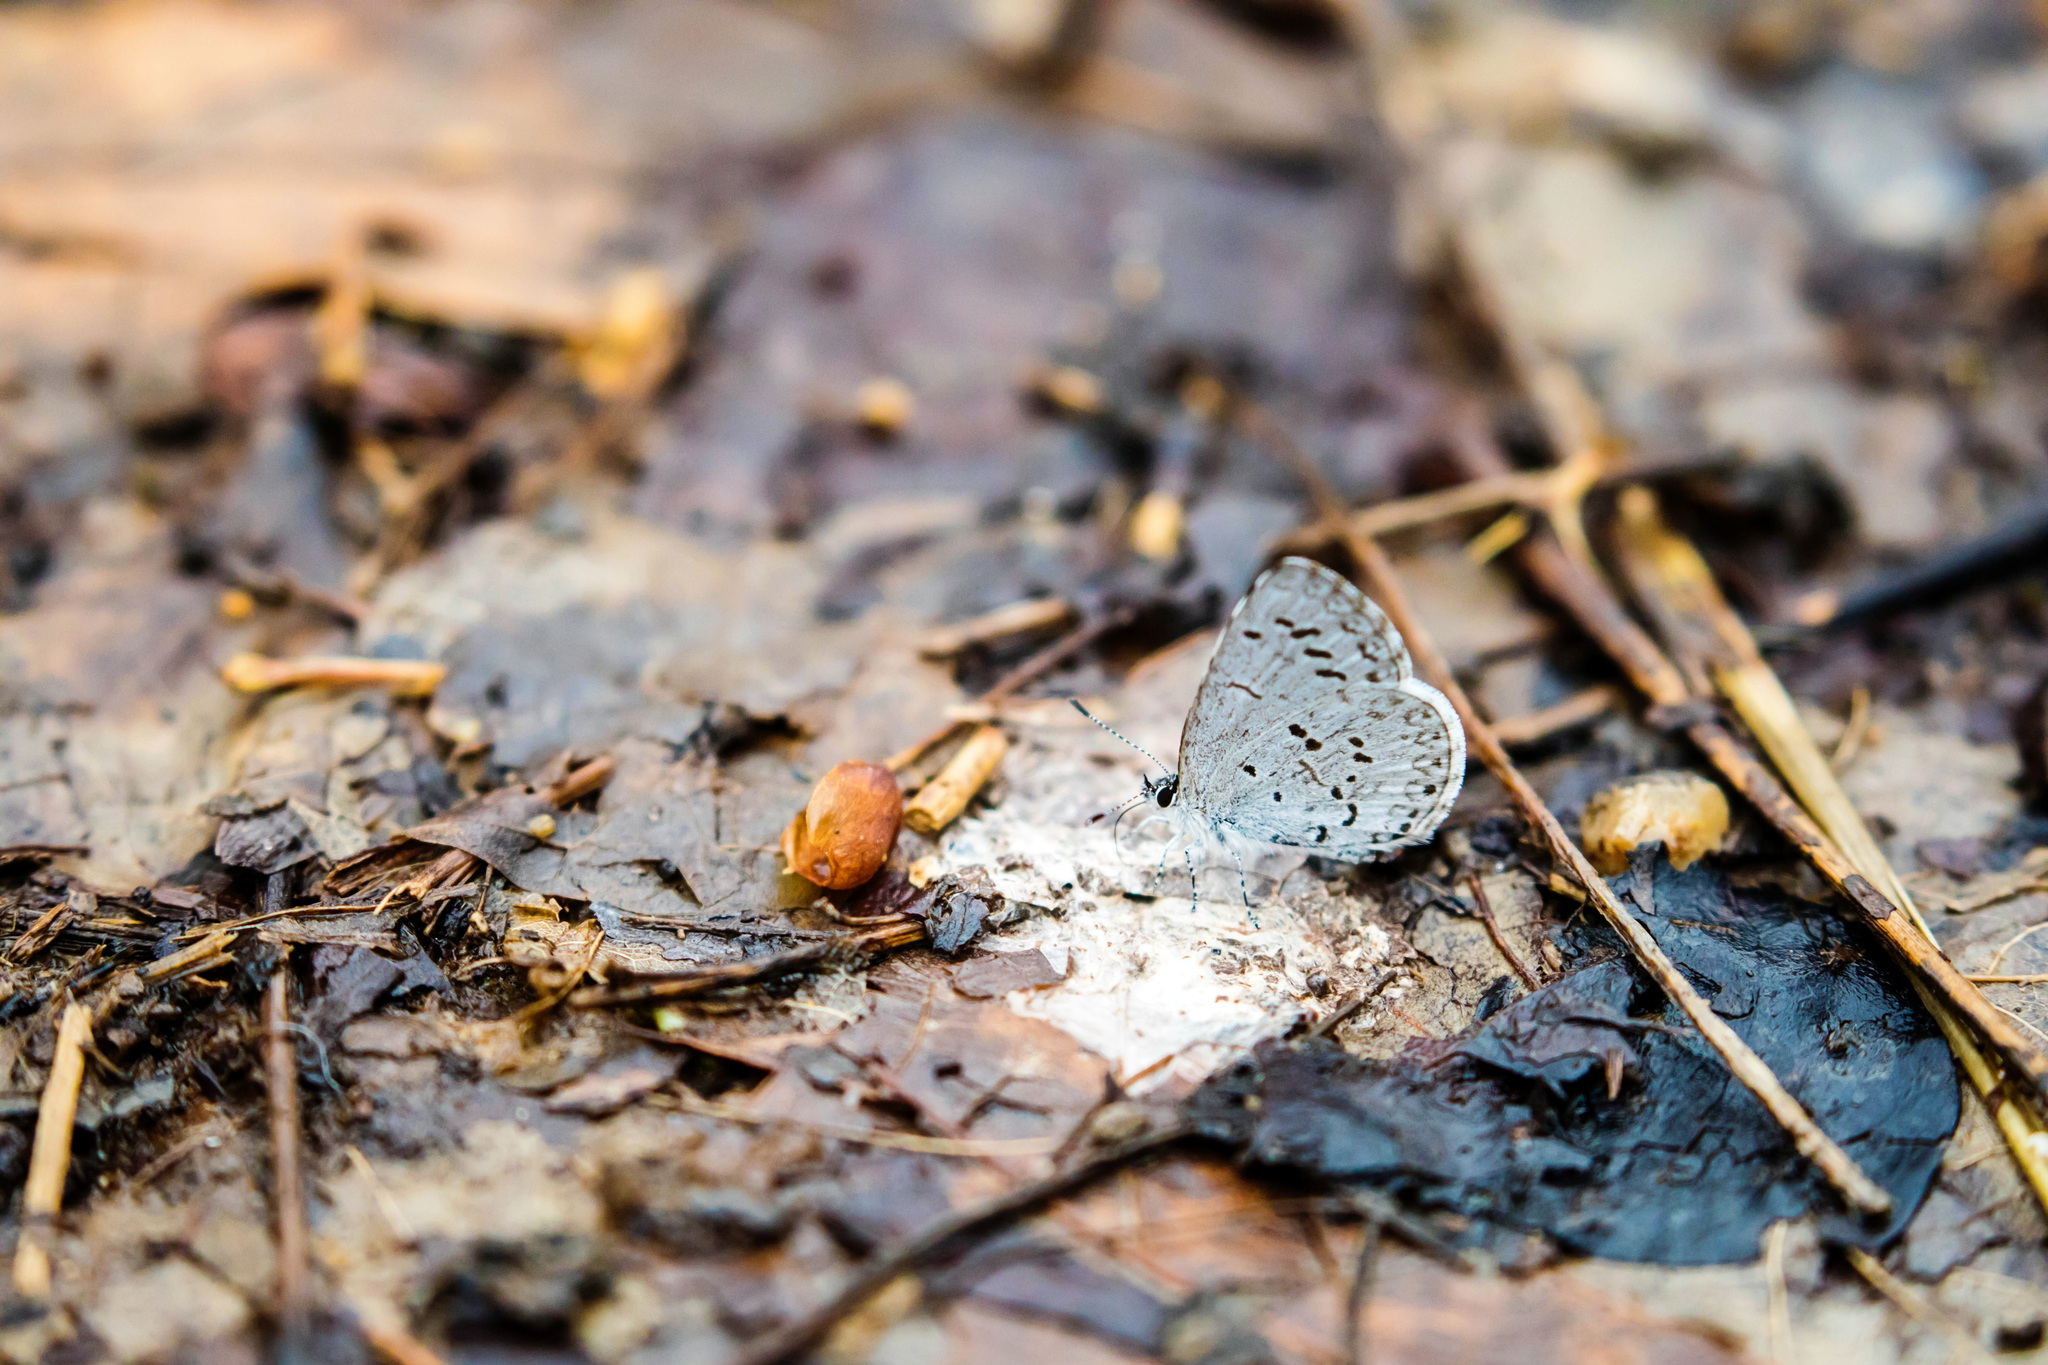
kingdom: Animalia
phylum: Arthropoda
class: Insecta
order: Lepidoptera
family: Lycaenidae
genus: Celastrina
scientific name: Celastrina ladon
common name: Spring azure
